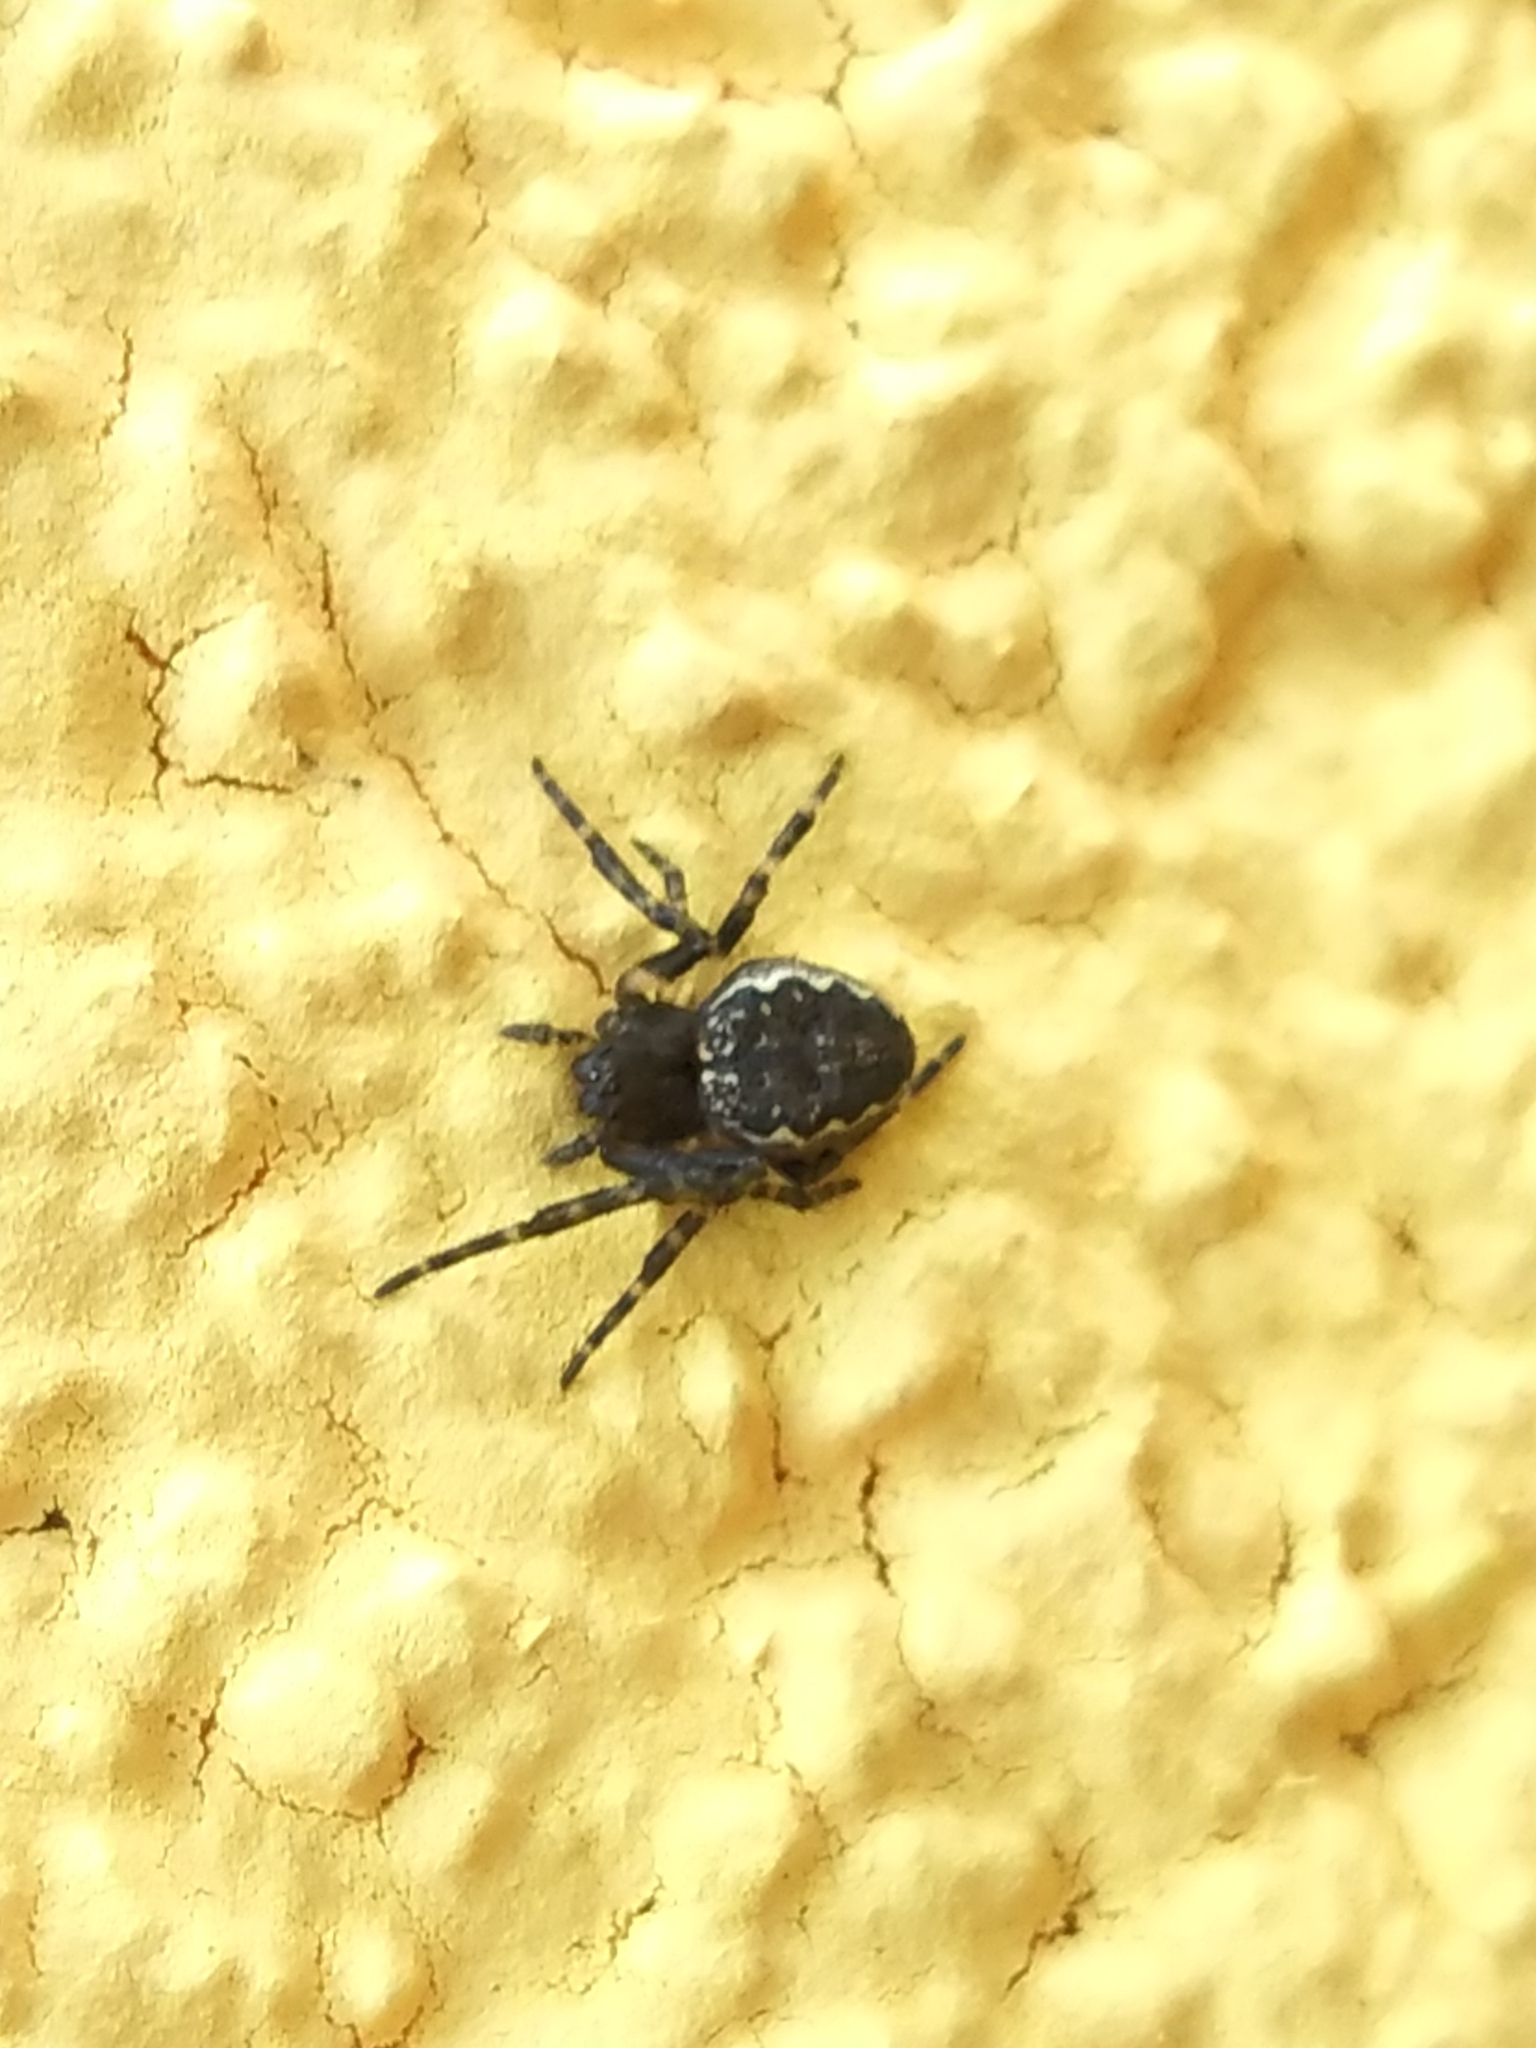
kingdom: Animalia
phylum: Arthropoda
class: Arachnida
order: Araneae
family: Araneidae
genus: Nuctenea
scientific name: Nuctenea umbratica
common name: Toad spider
